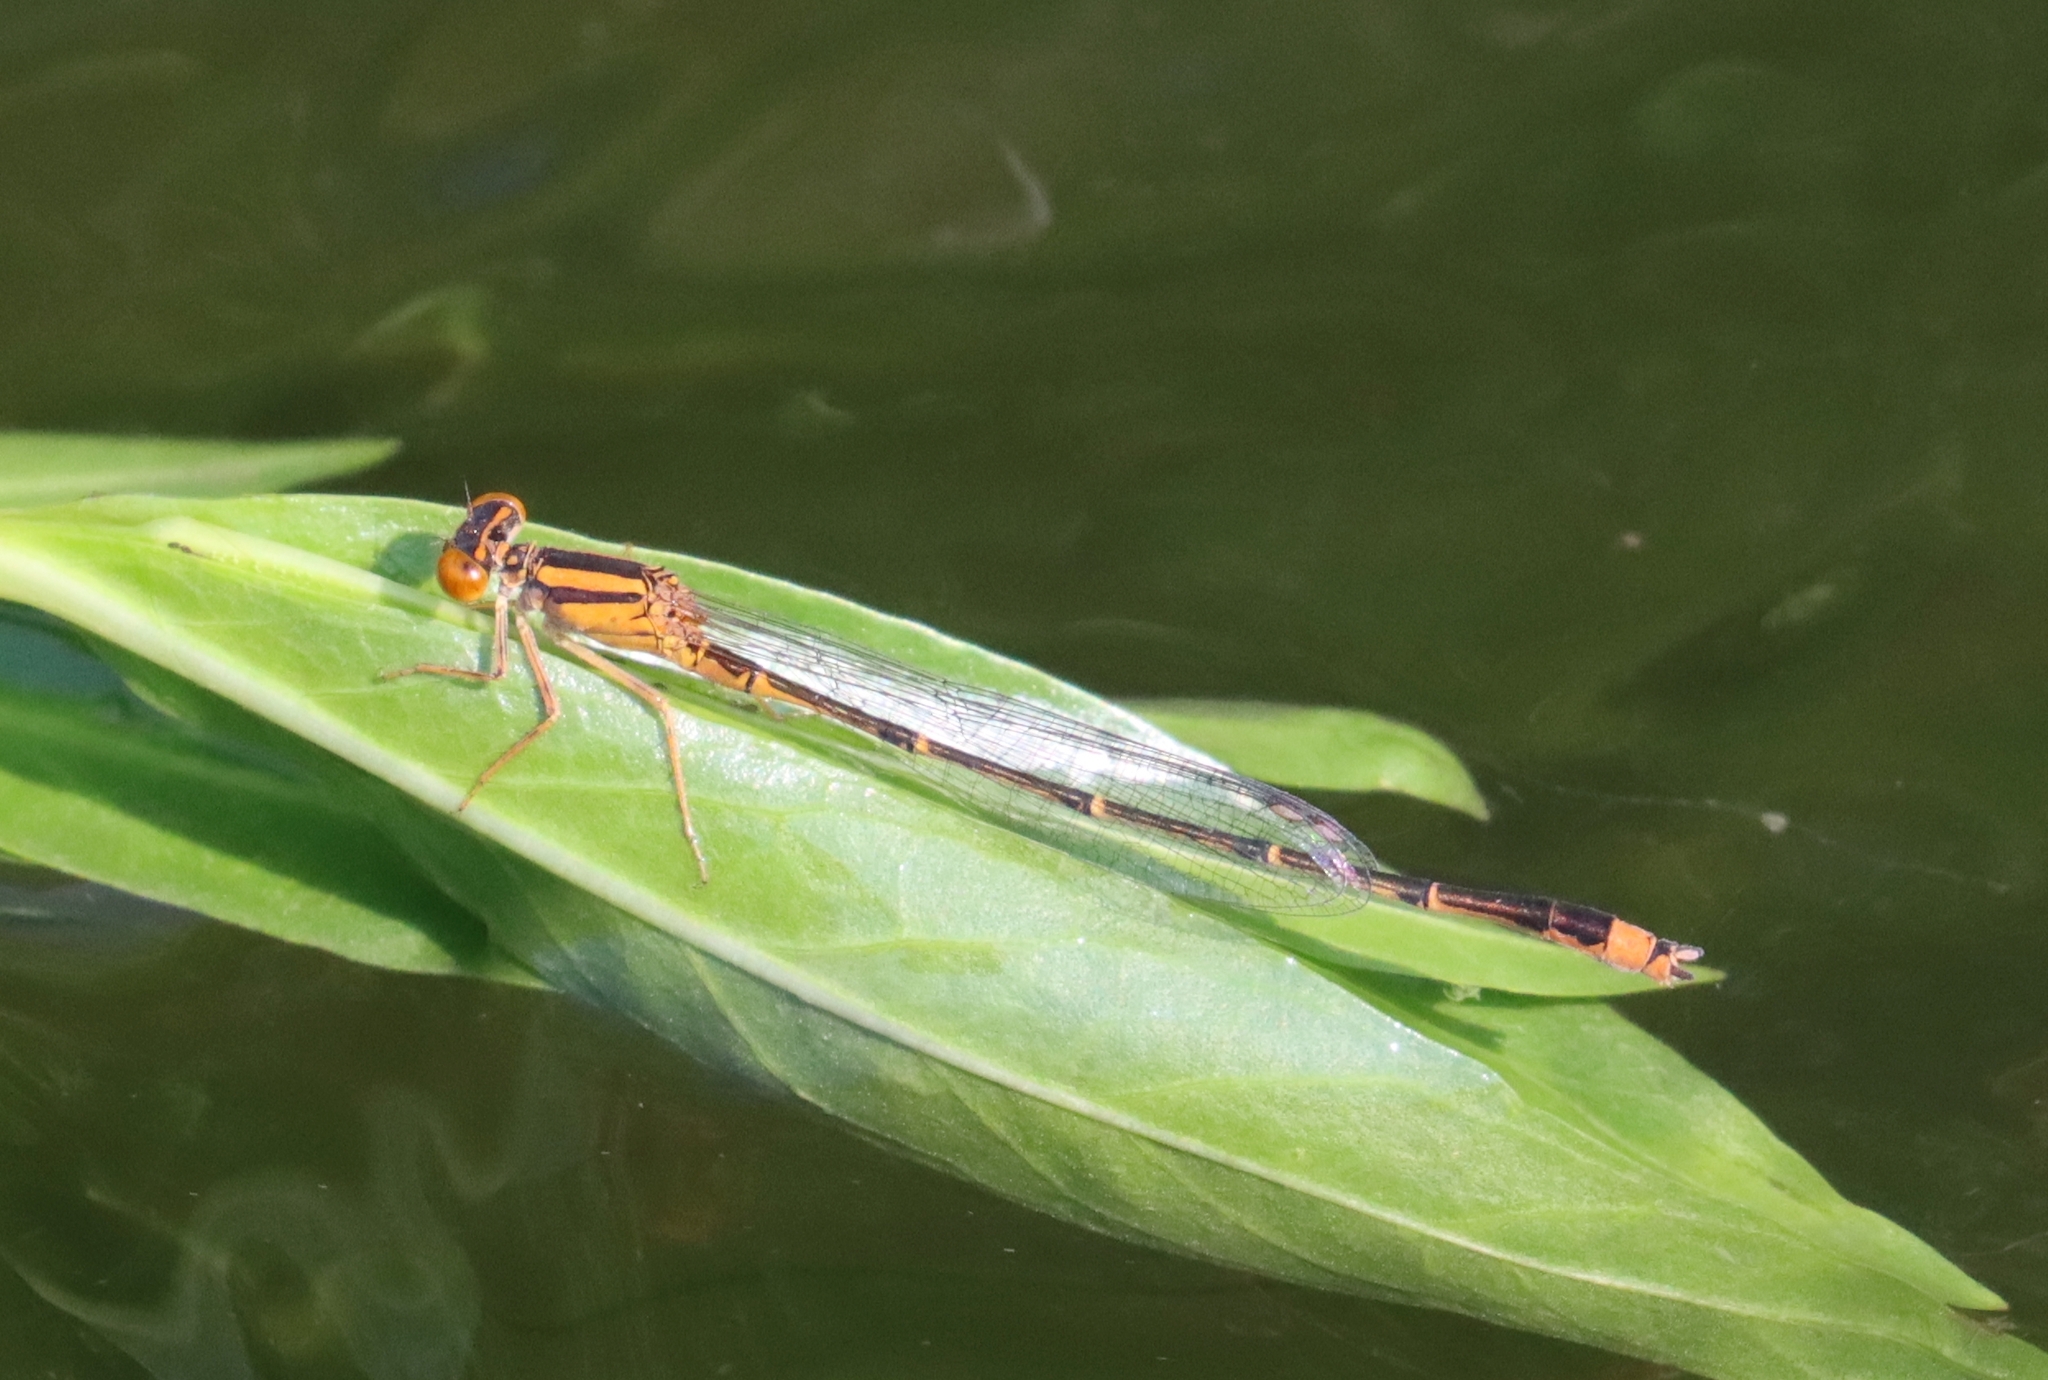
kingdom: Animalia
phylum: Arthropoda
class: Insecta
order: Odonata
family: Coenagrionidae
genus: Enallagma
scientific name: Enallagma signatum
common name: Orange bluet
